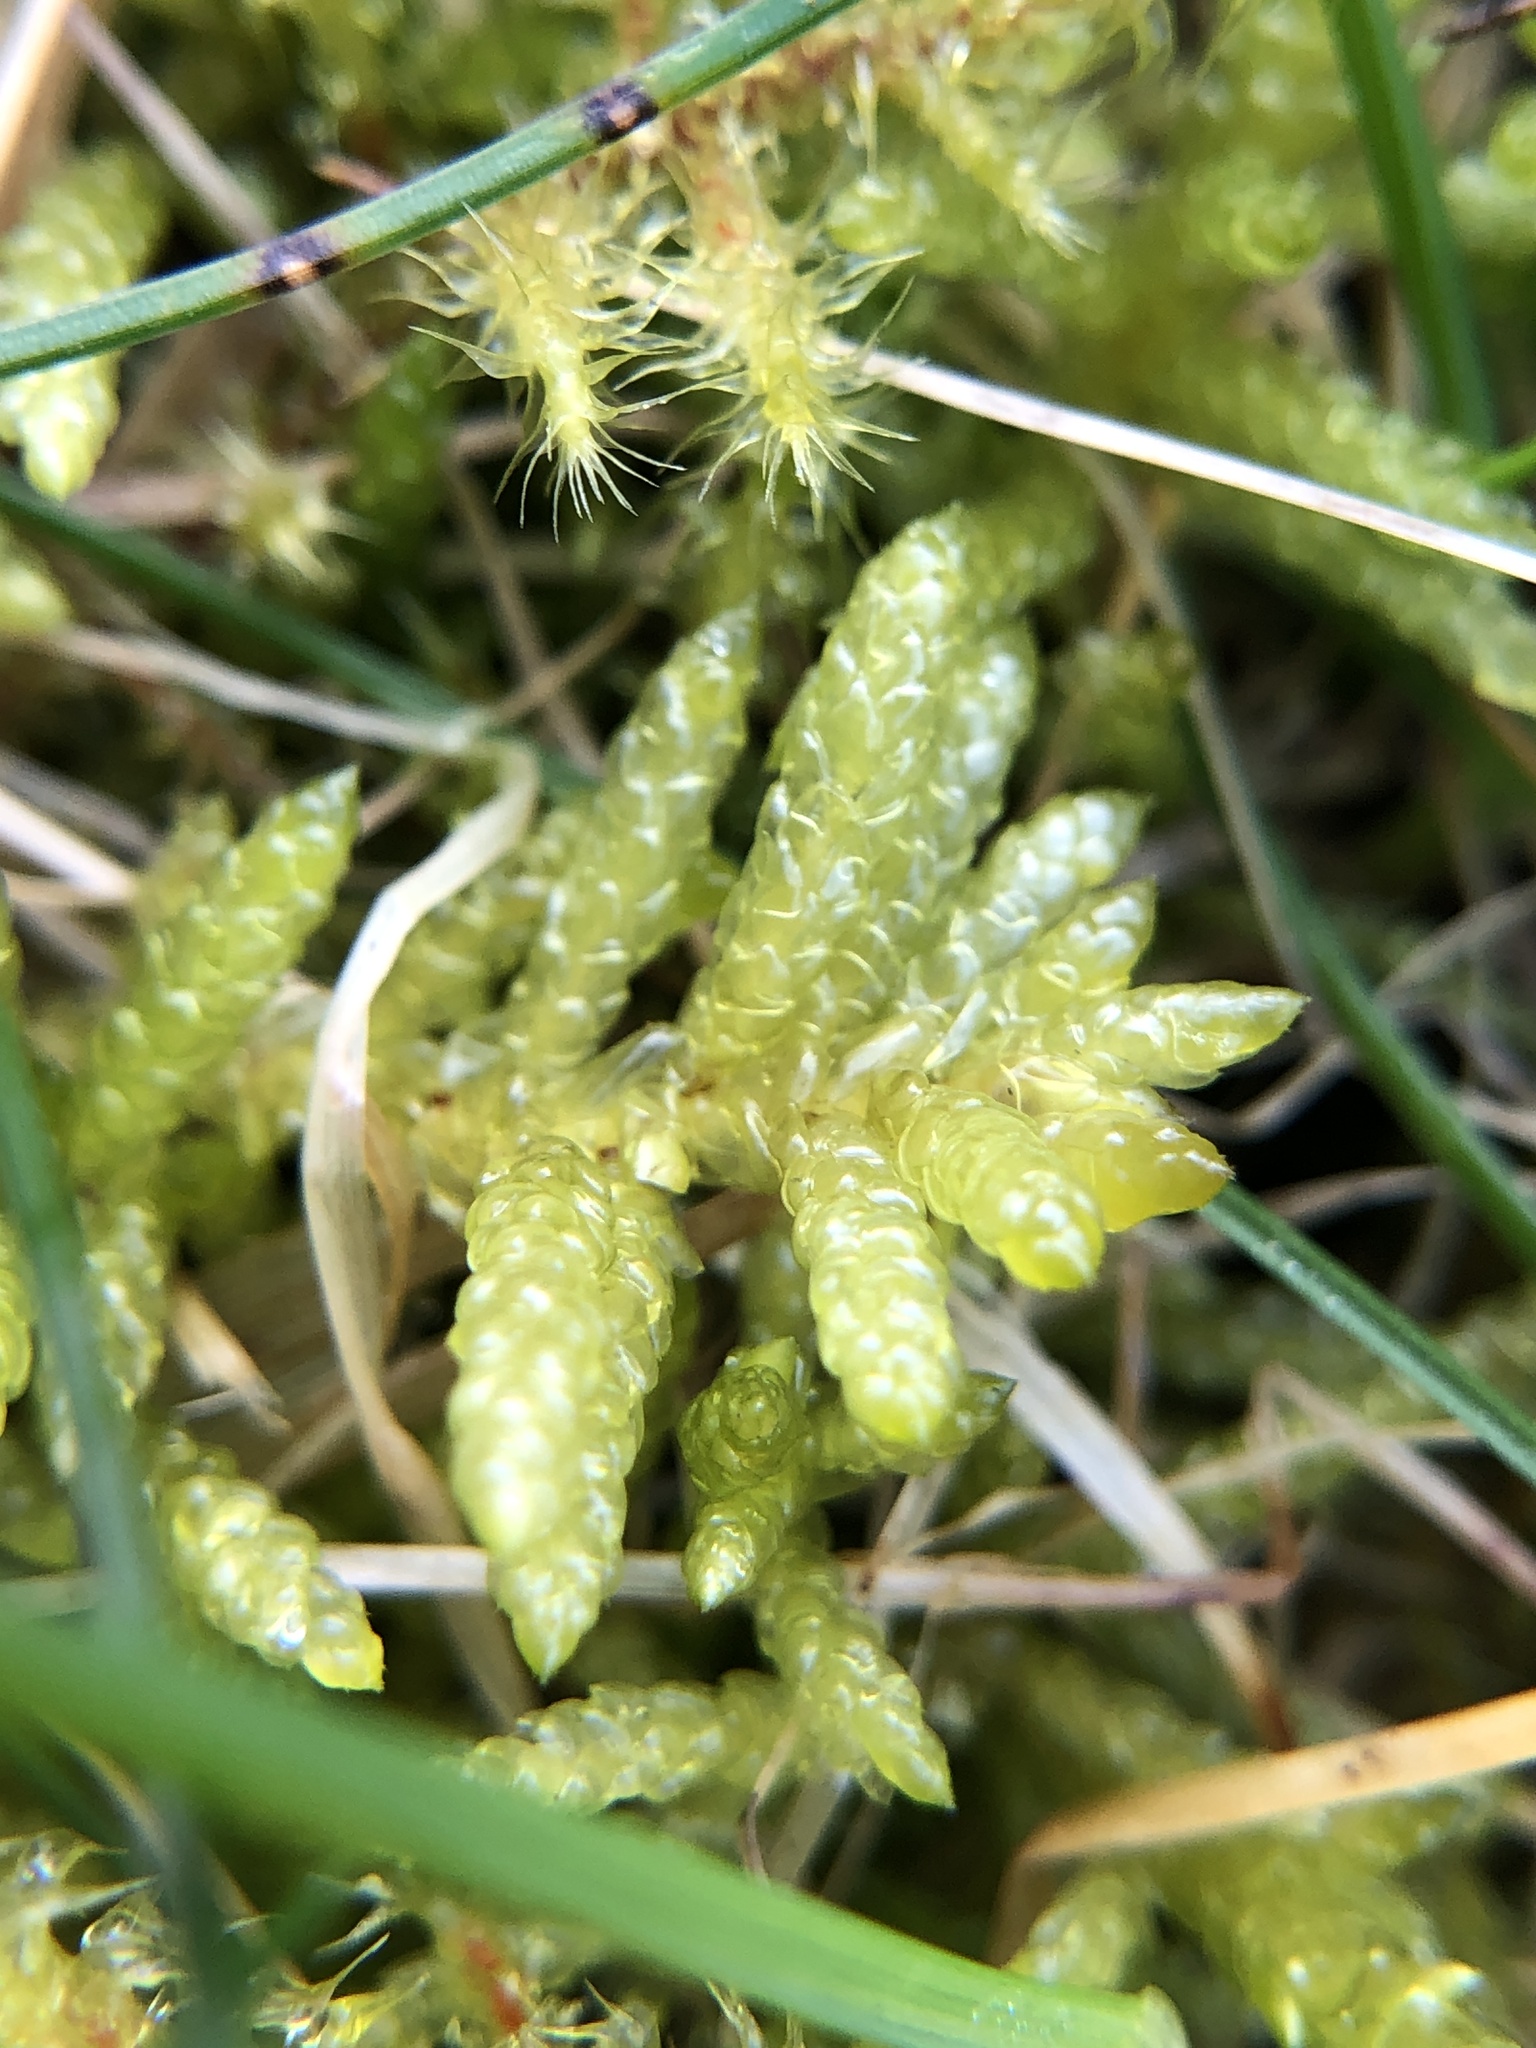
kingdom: Plantae
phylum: Bryophyta
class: Bryopsida
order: Hypnales
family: Brachytheciaceae
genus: Pseudoscleropodium
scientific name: Pseudoscleropodium purum
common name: Neat feather-moss
